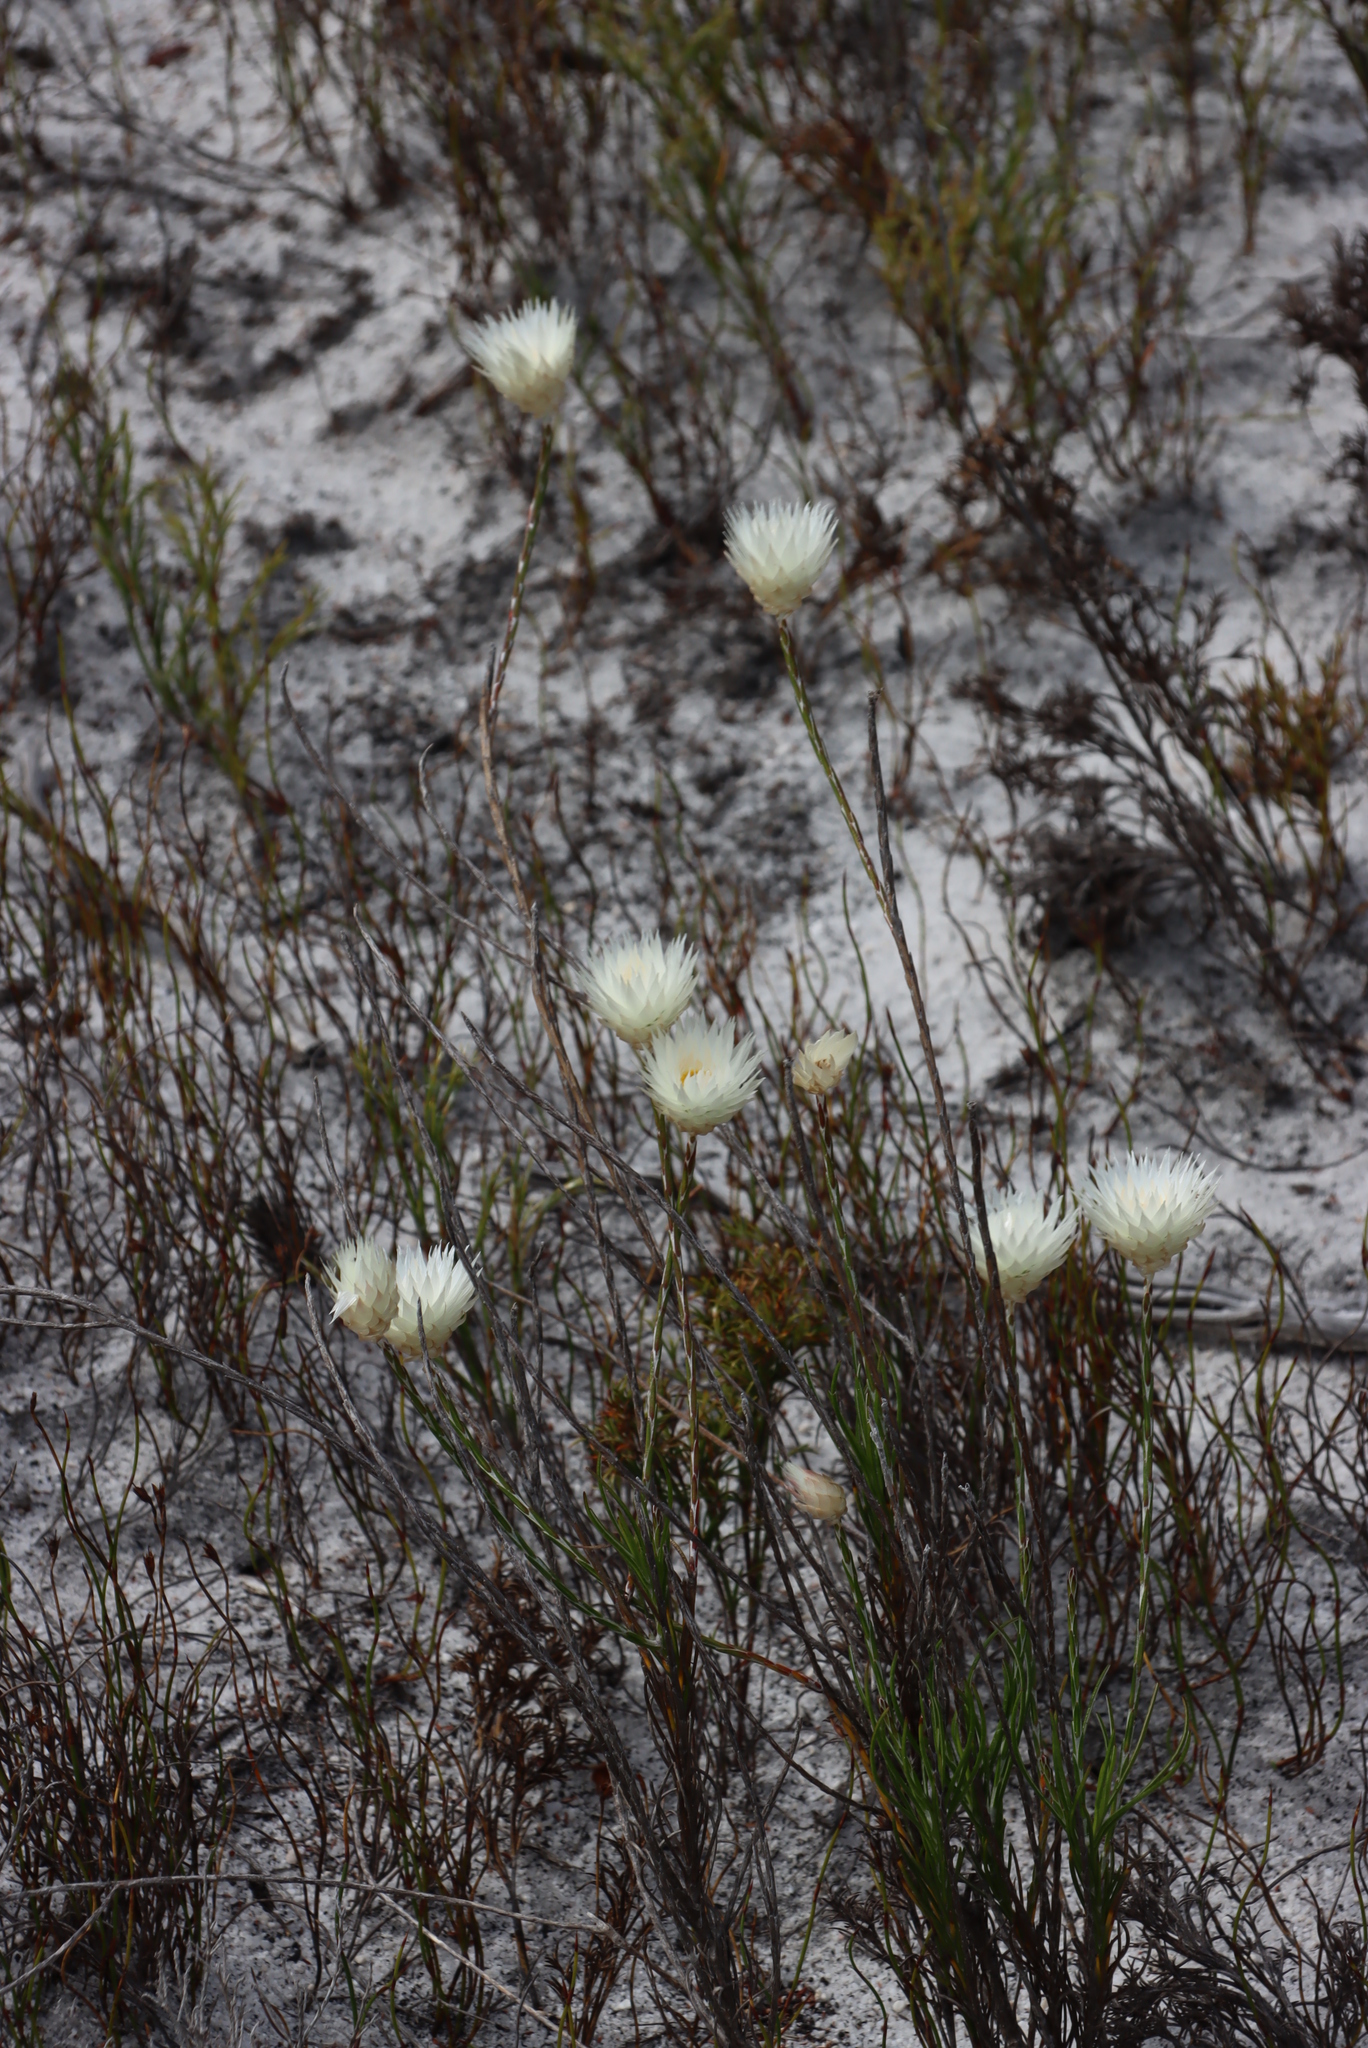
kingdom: Plantae
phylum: Tracheophyta
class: Magnoliopsida
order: Asterales
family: Asteraceae
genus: Edmondia
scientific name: Edmondia sesamoides
